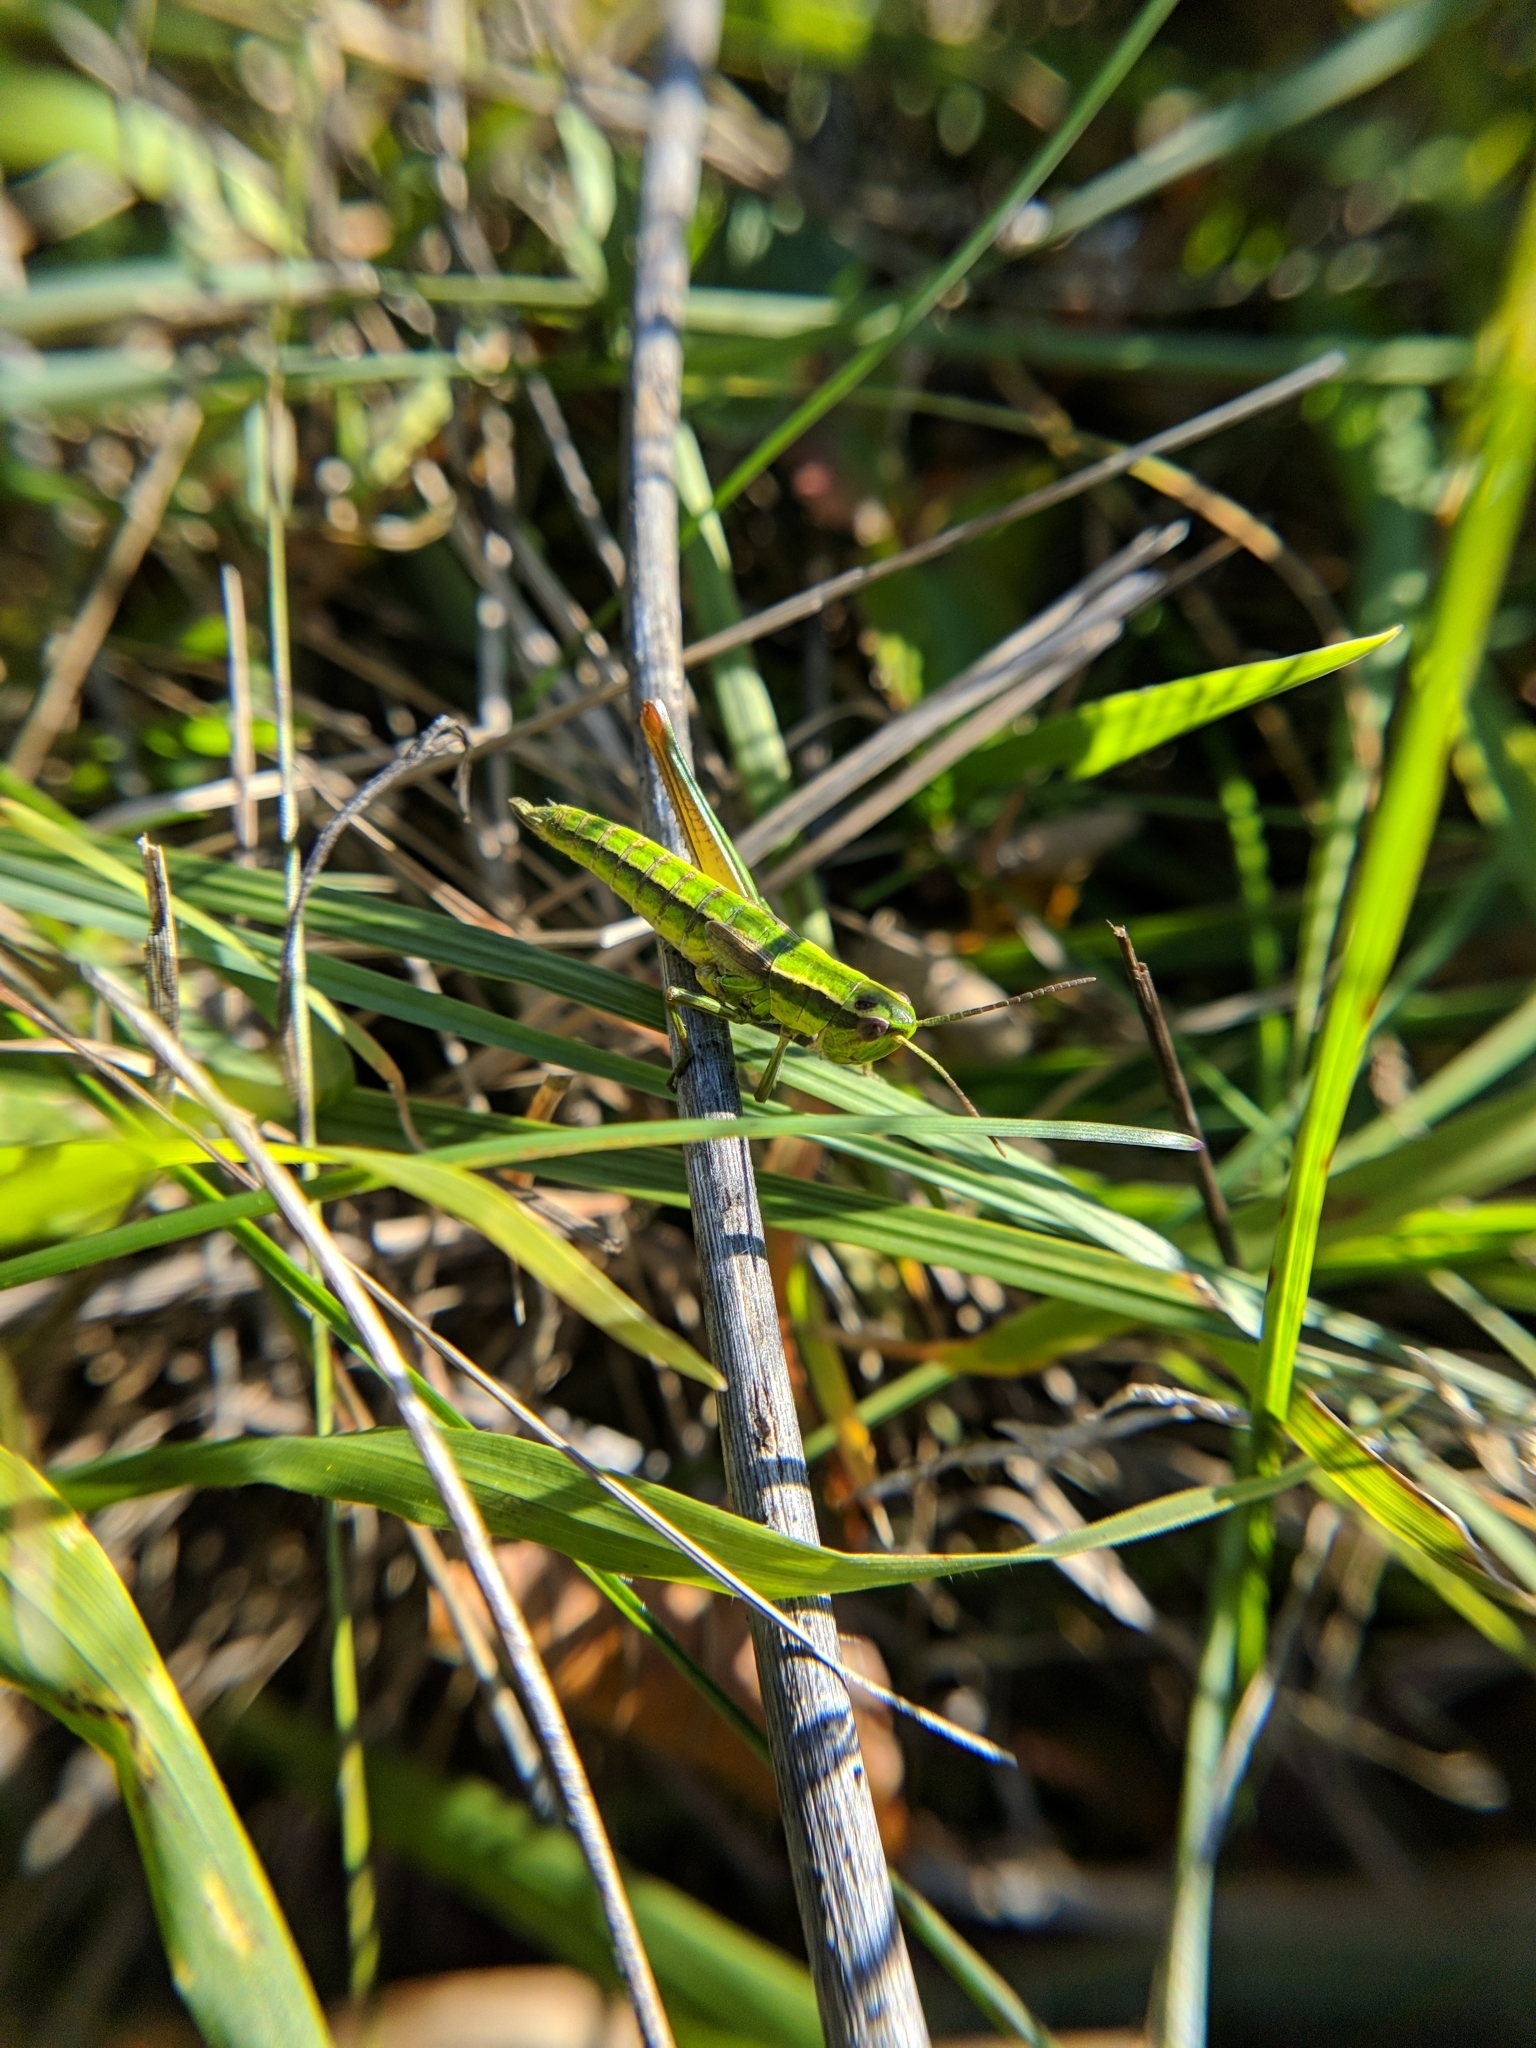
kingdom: Animalia
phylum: Arthropoda
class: Insecta
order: Orthoptera
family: Acrididae
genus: Euthystira
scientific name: Euthystira brachyptera
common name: Small gold grasshopper
